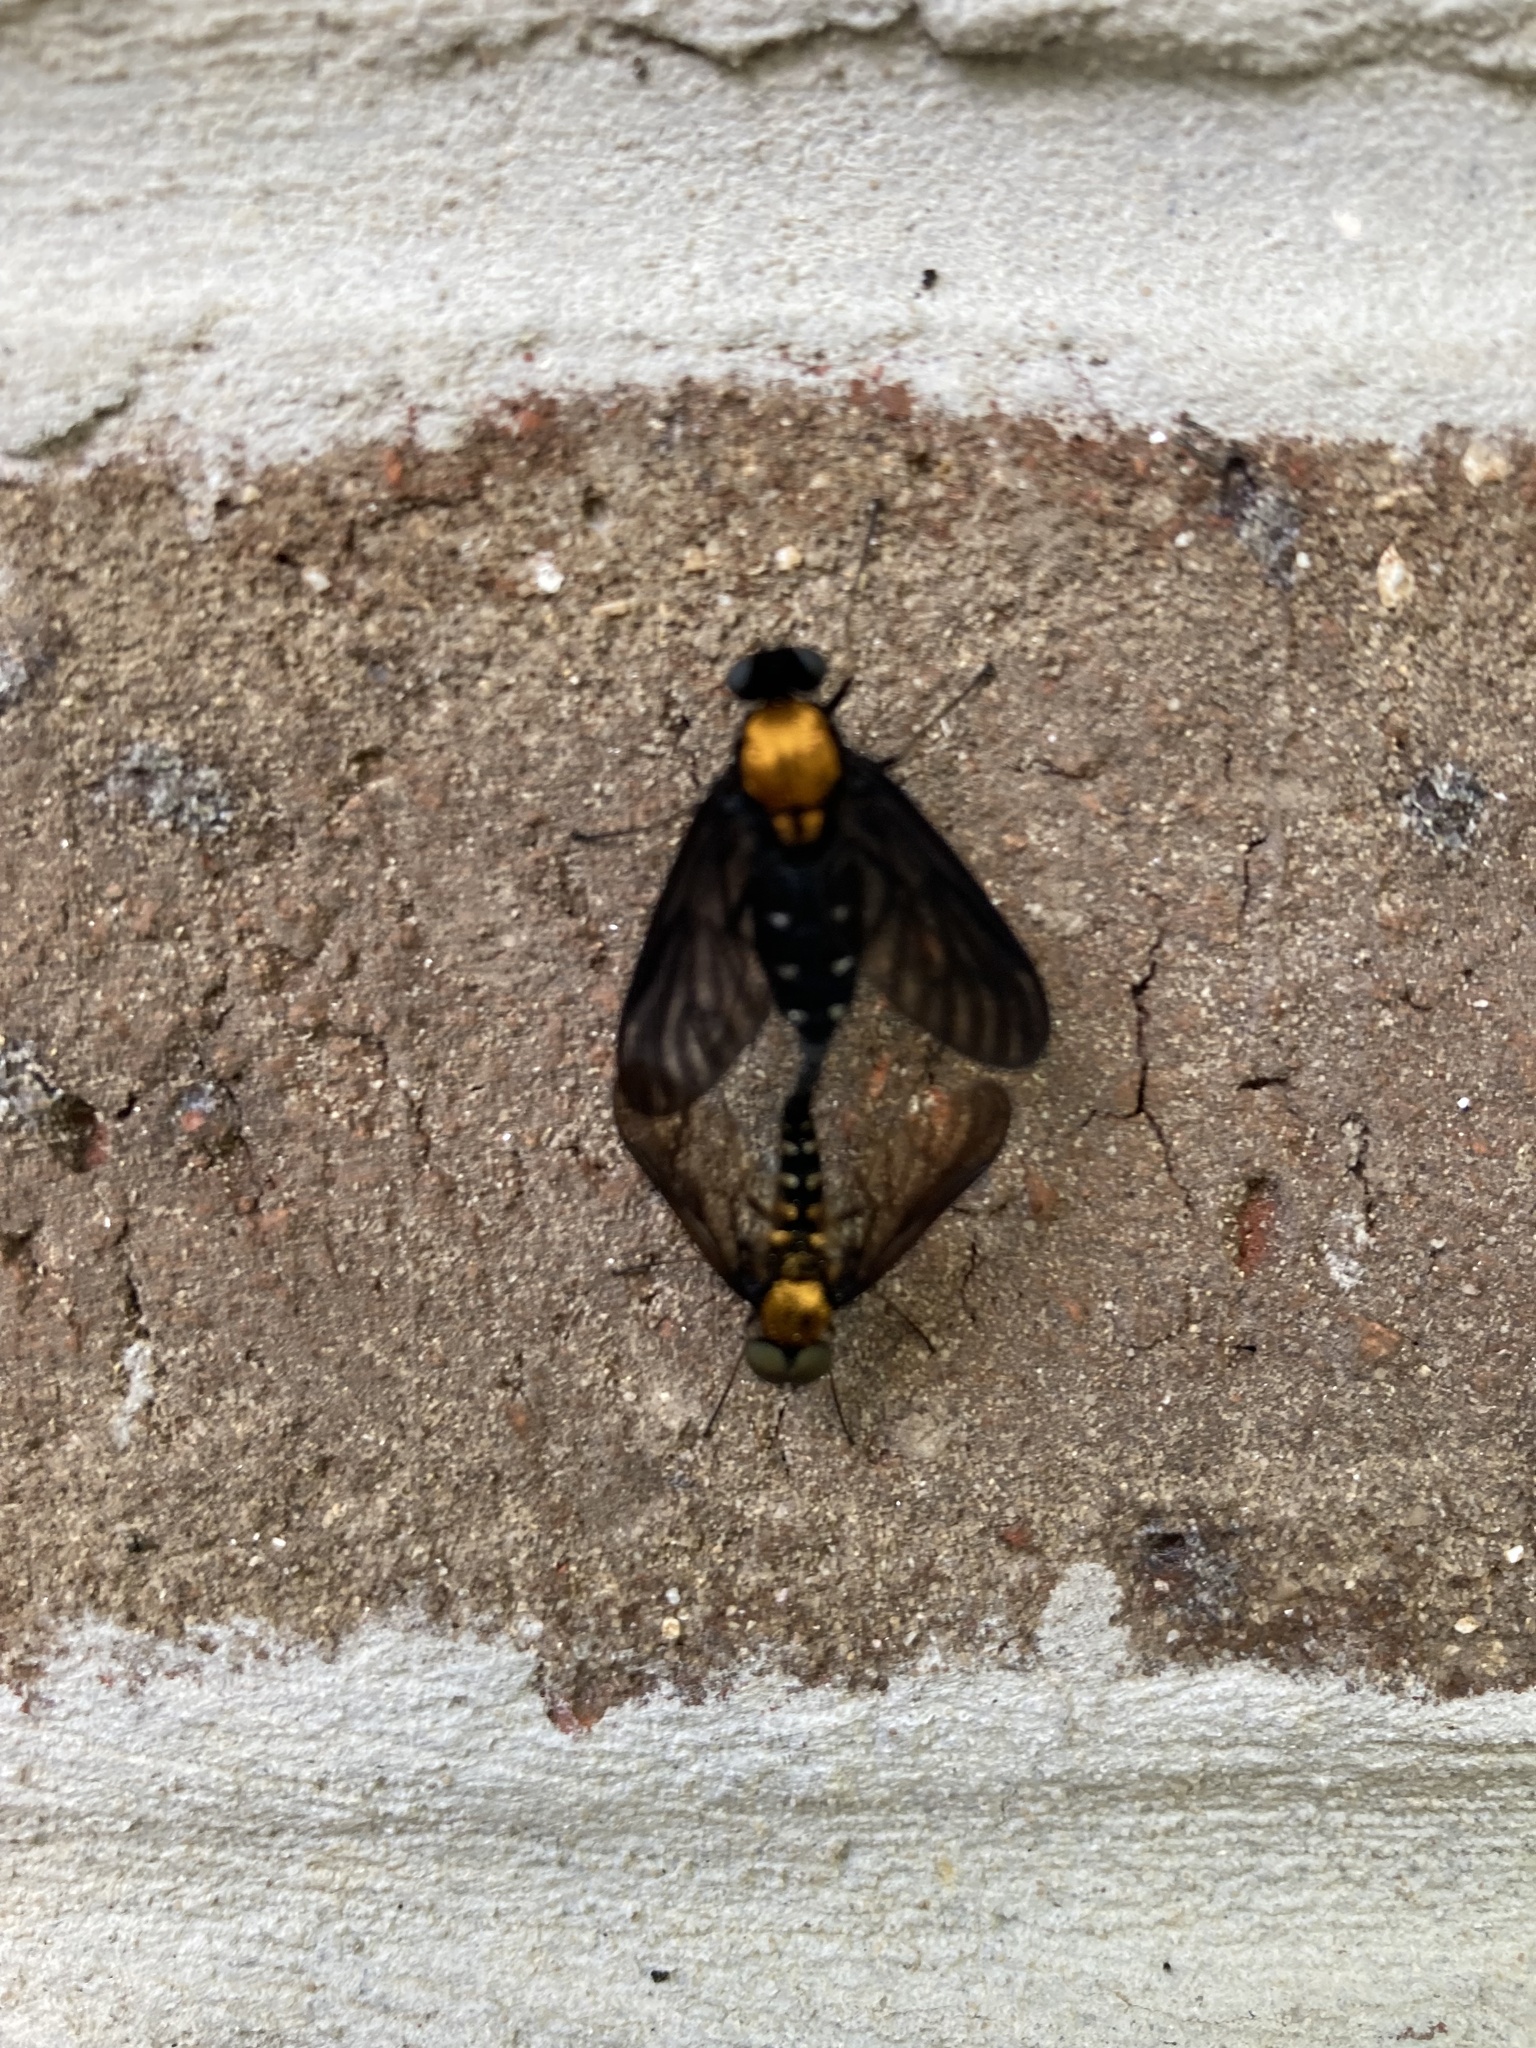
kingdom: Animalia
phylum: Arthropoda
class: Insecta
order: Diptera
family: Rhagionidae
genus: Chrysopilus
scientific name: Chrysopilus thoracicus
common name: Golden-backed snipe fly
